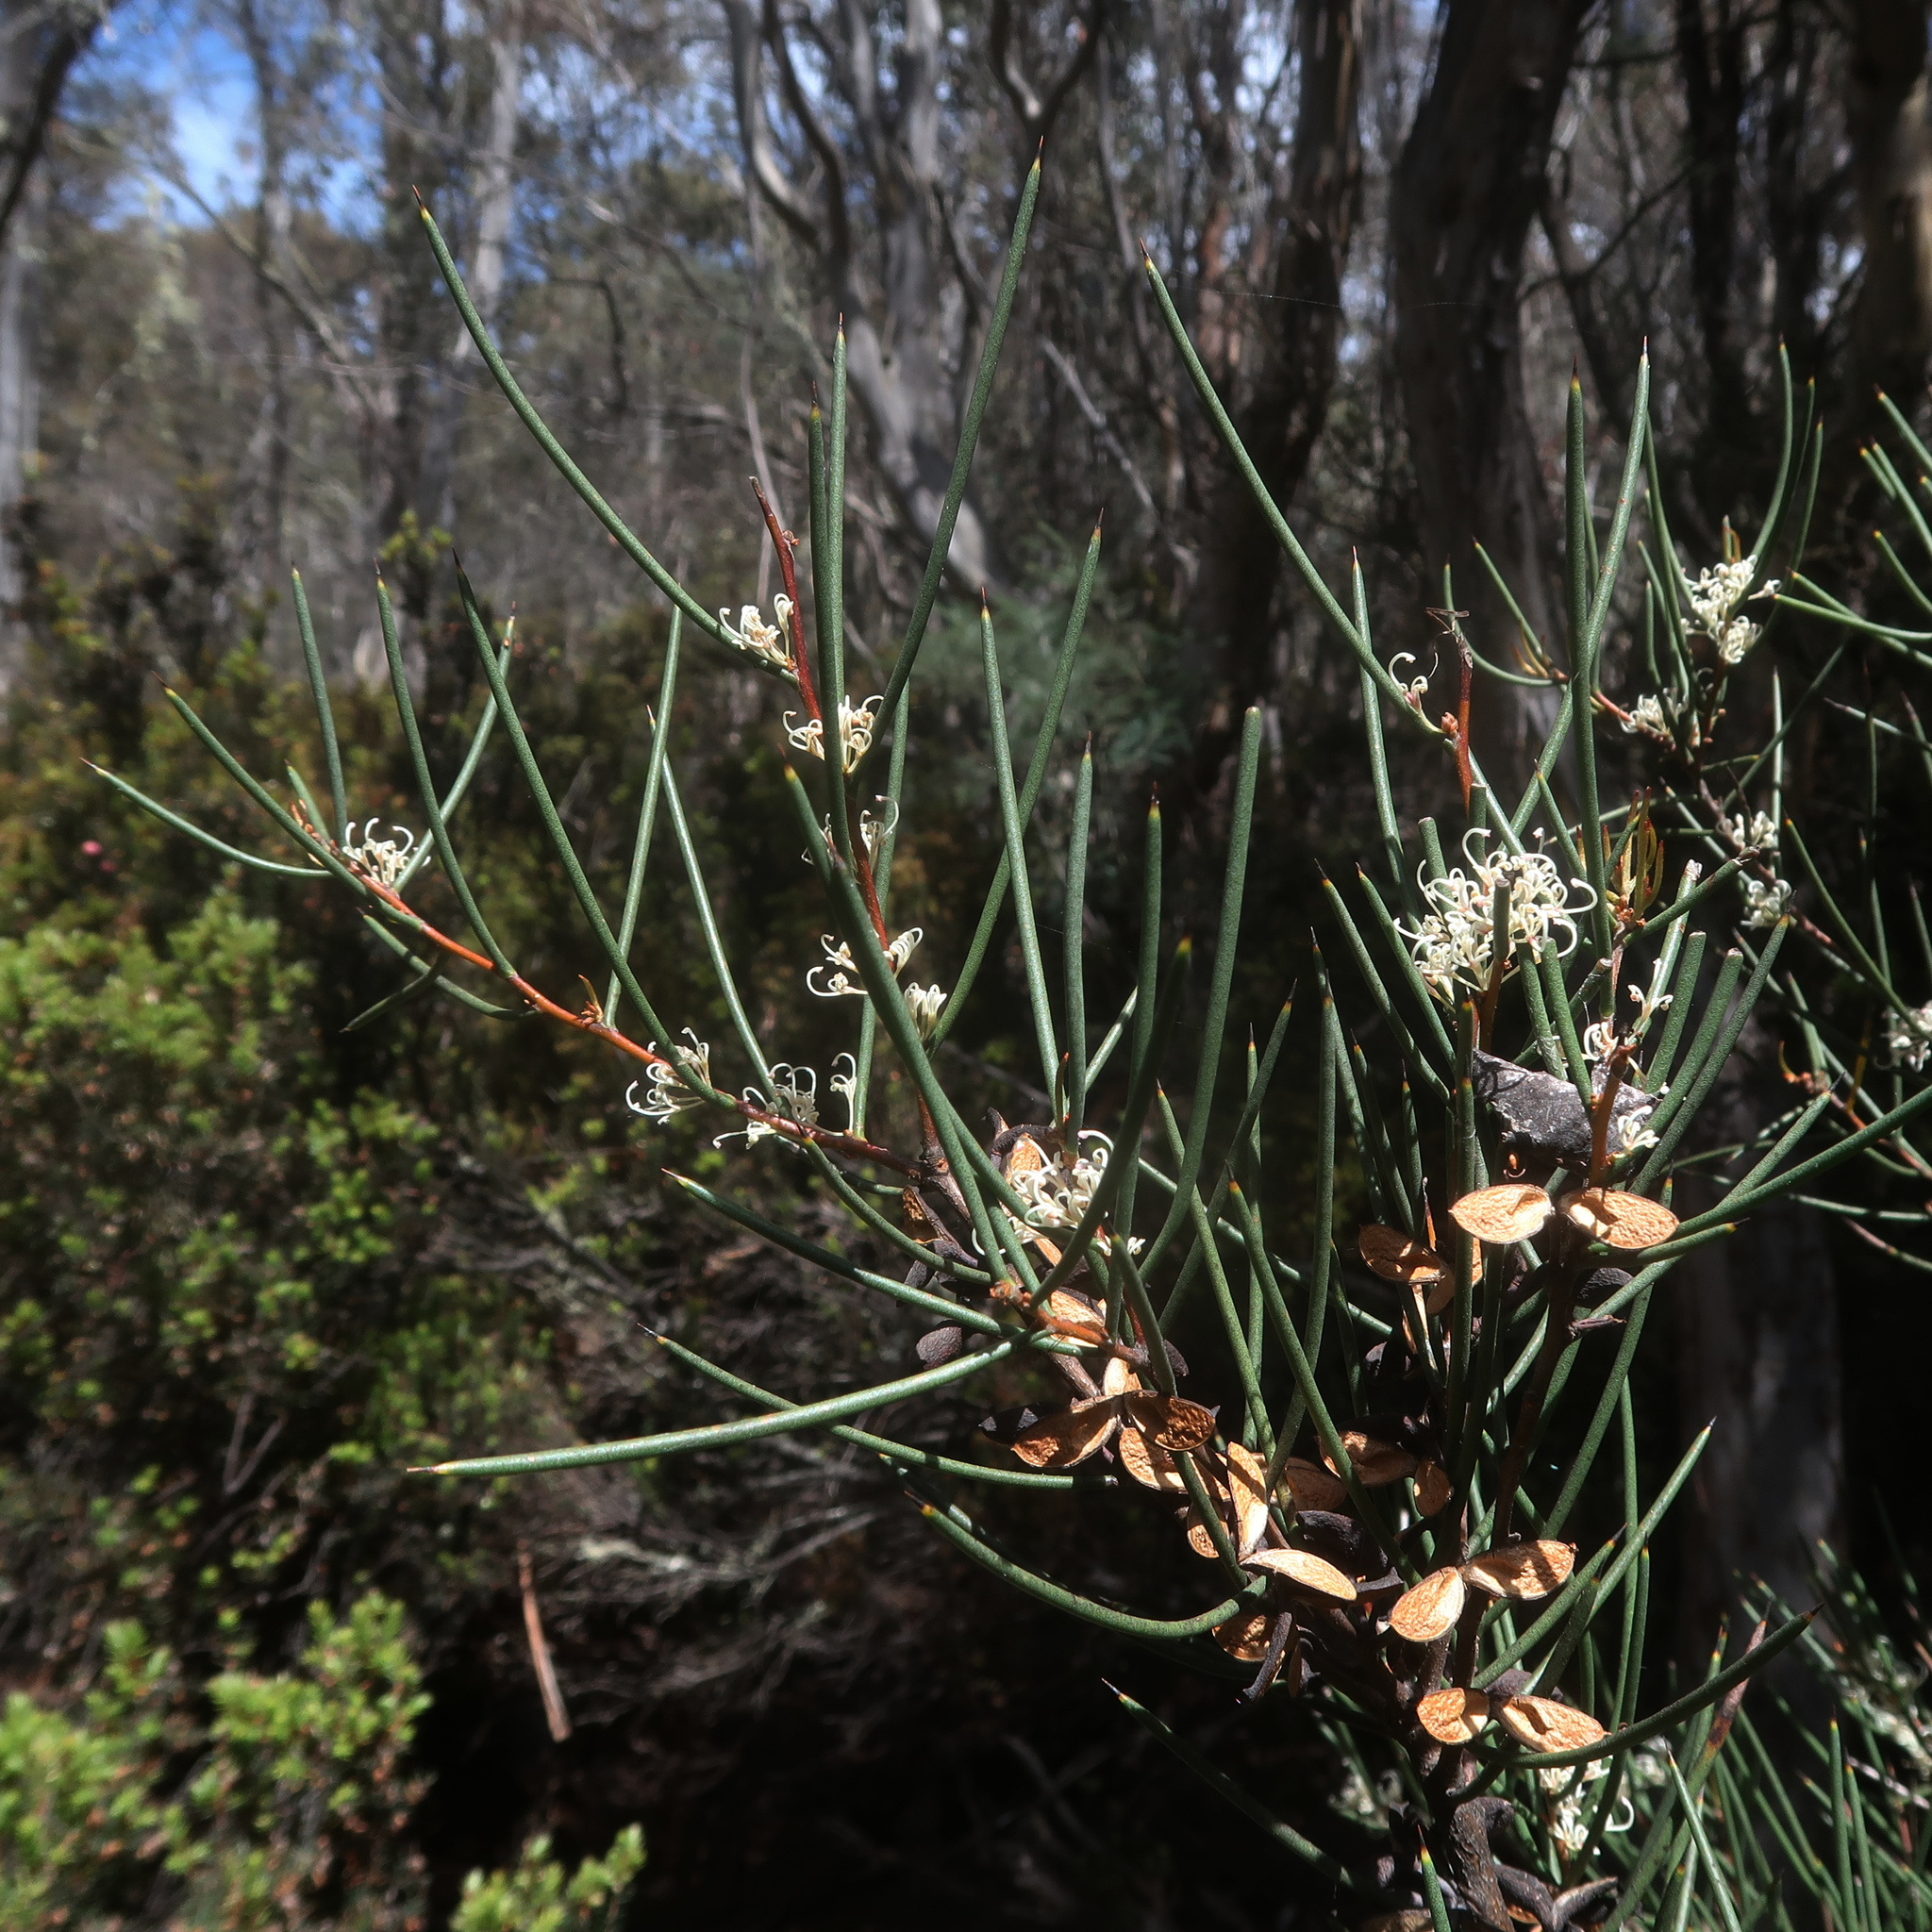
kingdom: Plantae
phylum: Tracheophyta
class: Magnoliopsida
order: Proteales
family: Proteaceae
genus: Hakea
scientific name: Hakea microcarpa
